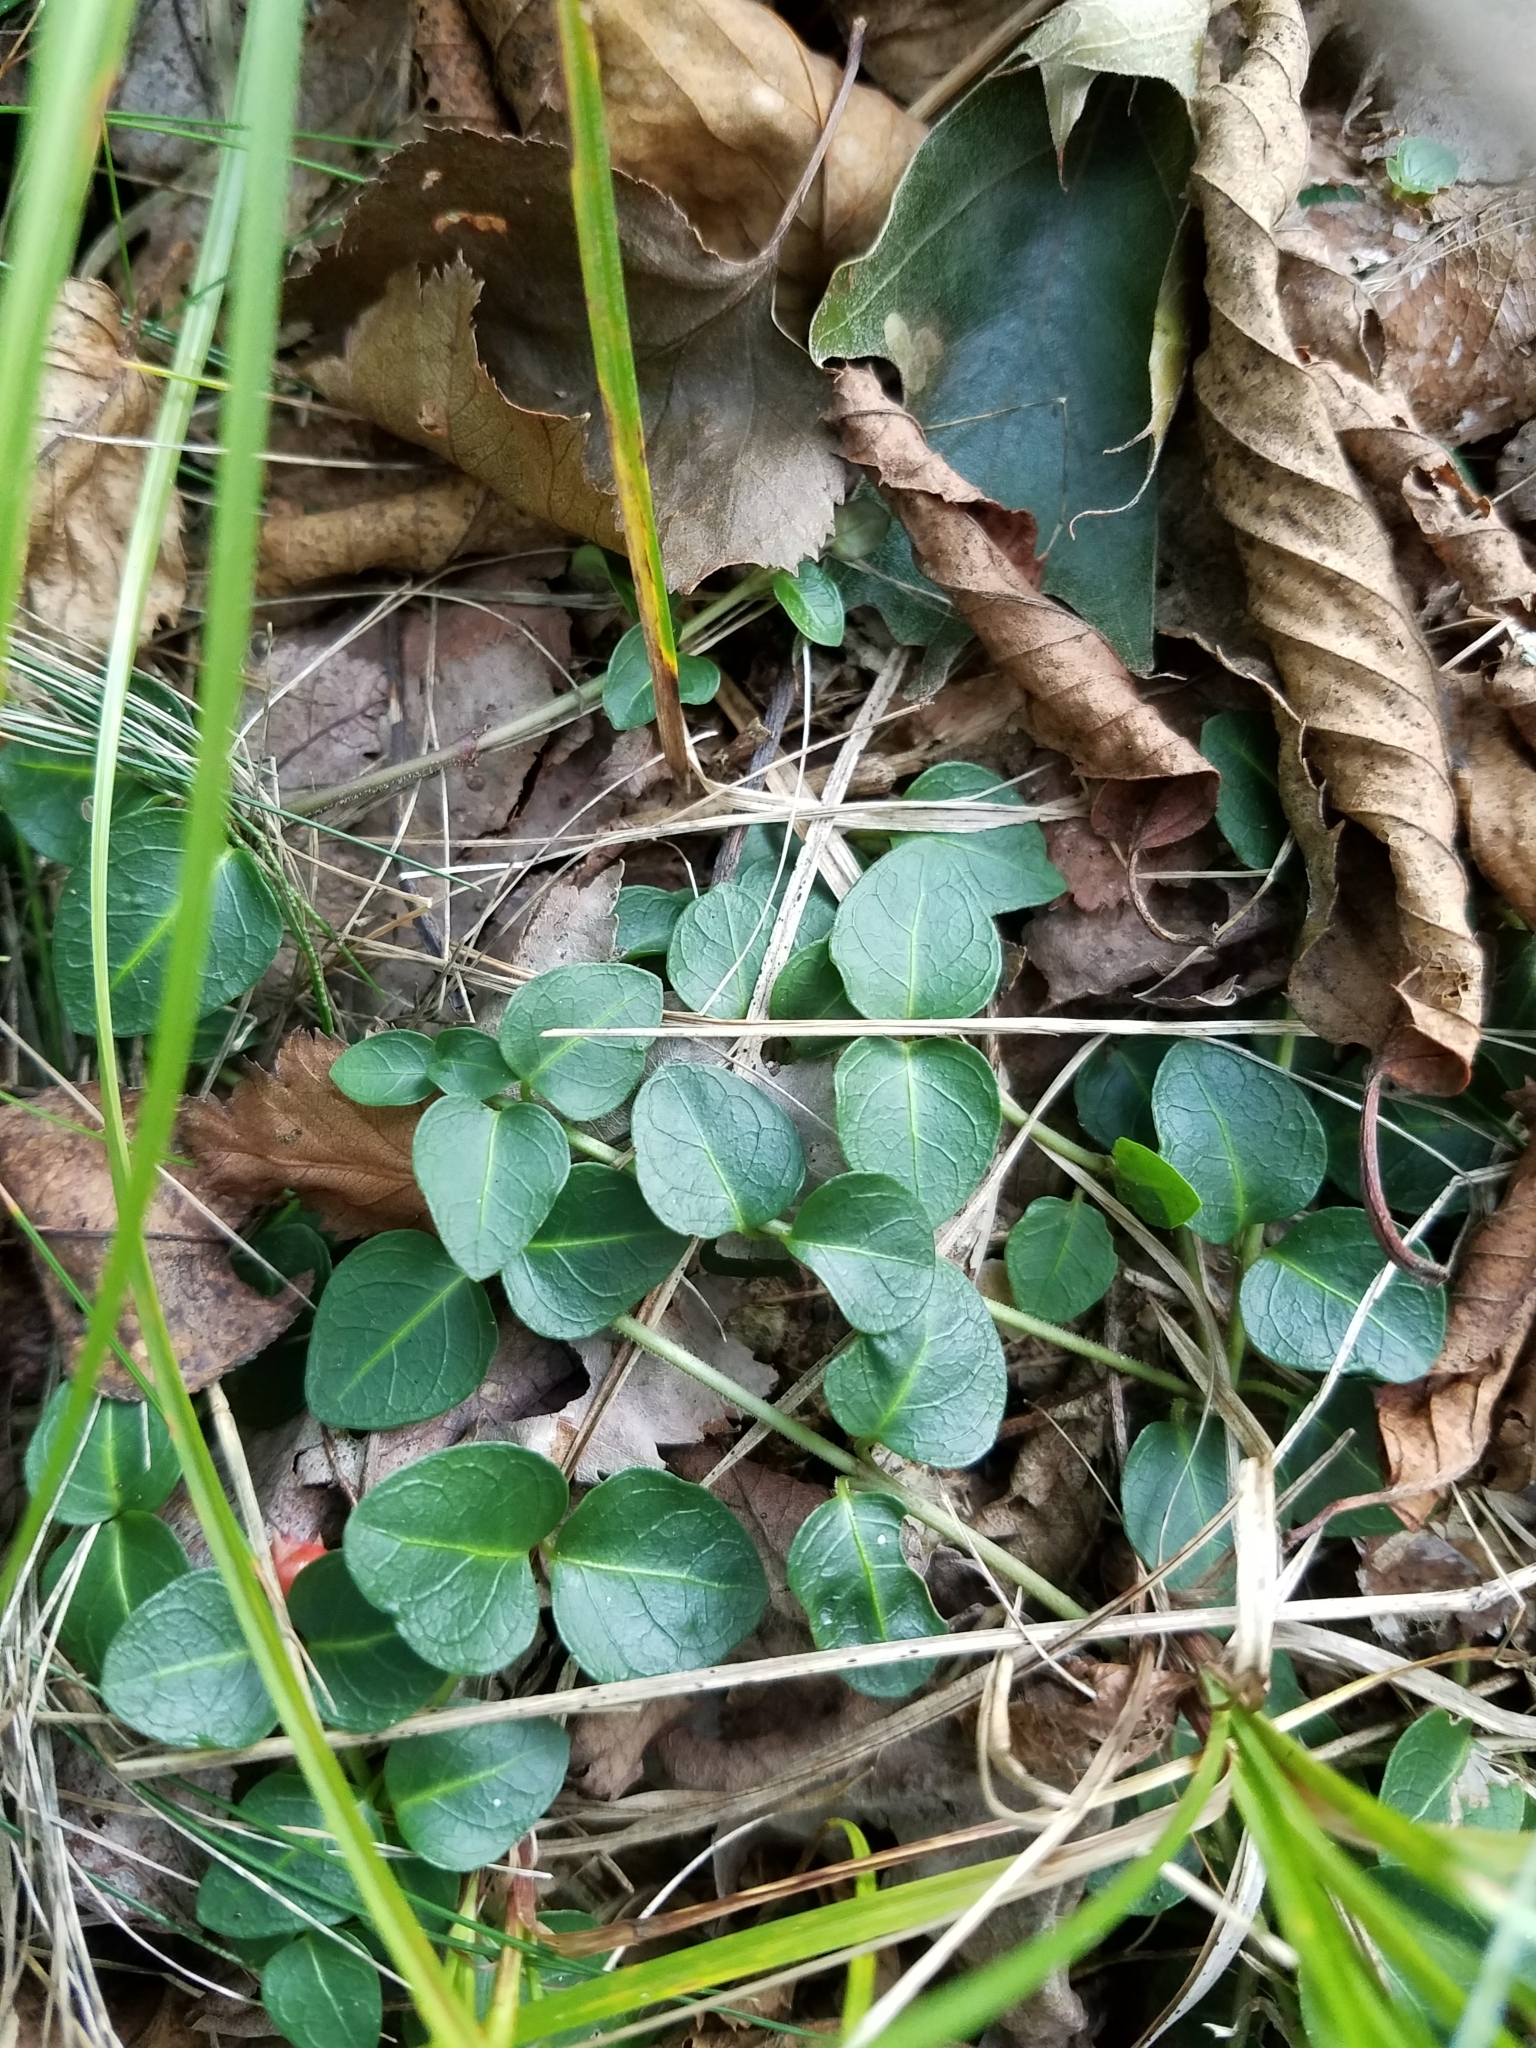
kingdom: Plantae
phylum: Tracheophyta
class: Magnoliopsida
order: Gentianales
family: Rubiaceae
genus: Mitchella
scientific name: Mitchella repens
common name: Partridge-berry
